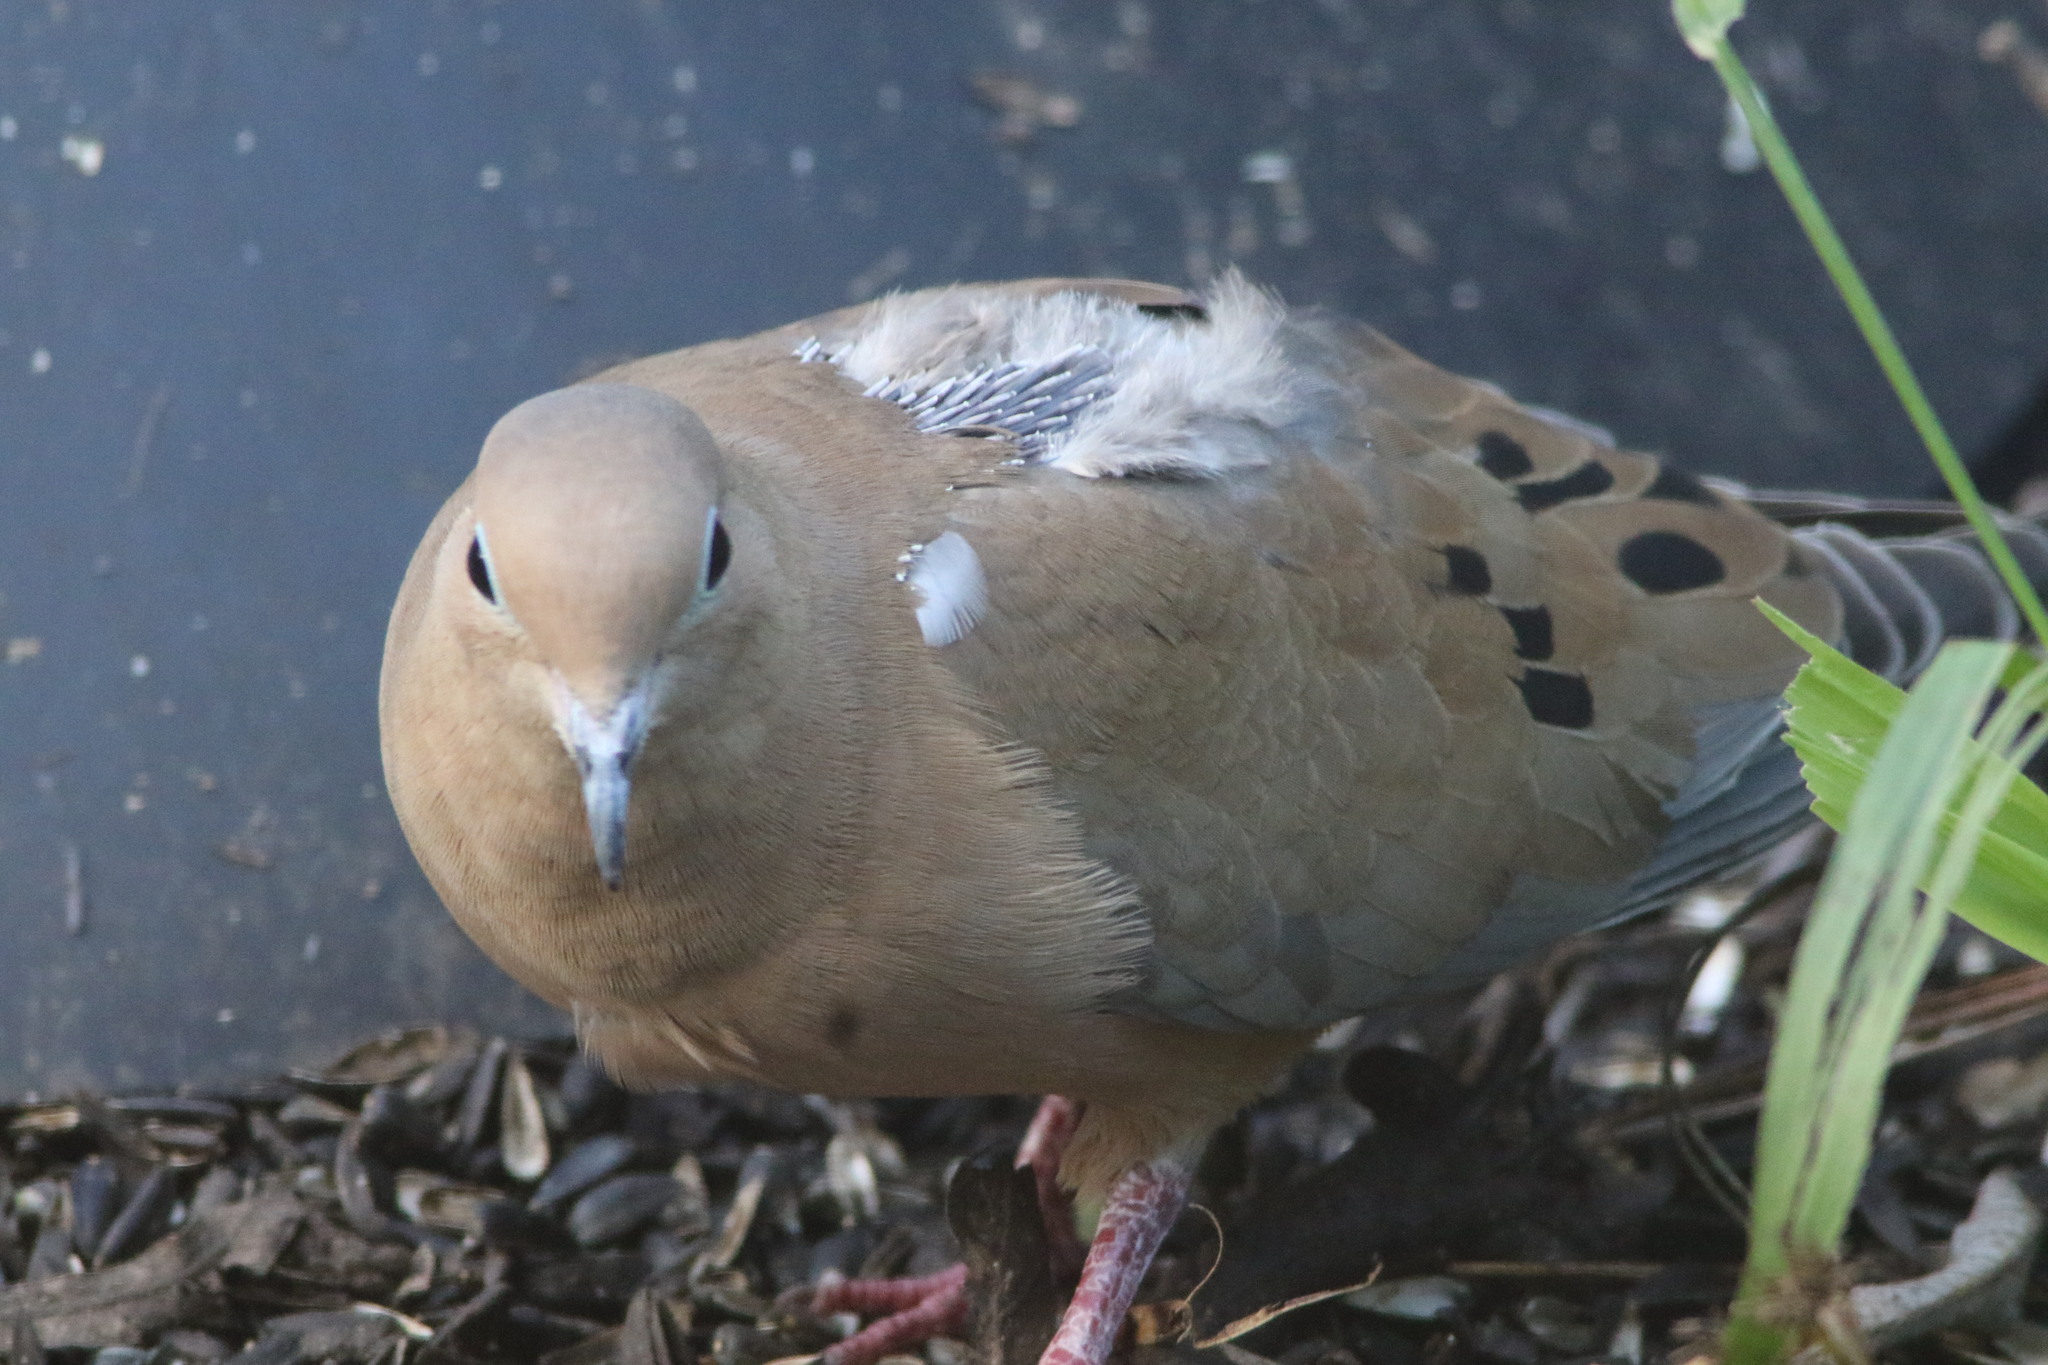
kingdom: Animalia
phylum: Chordata
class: Aves
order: Columbiformes
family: Columbidae
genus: Zenaida
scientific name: Zenaida macroura
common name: Mourning dove
